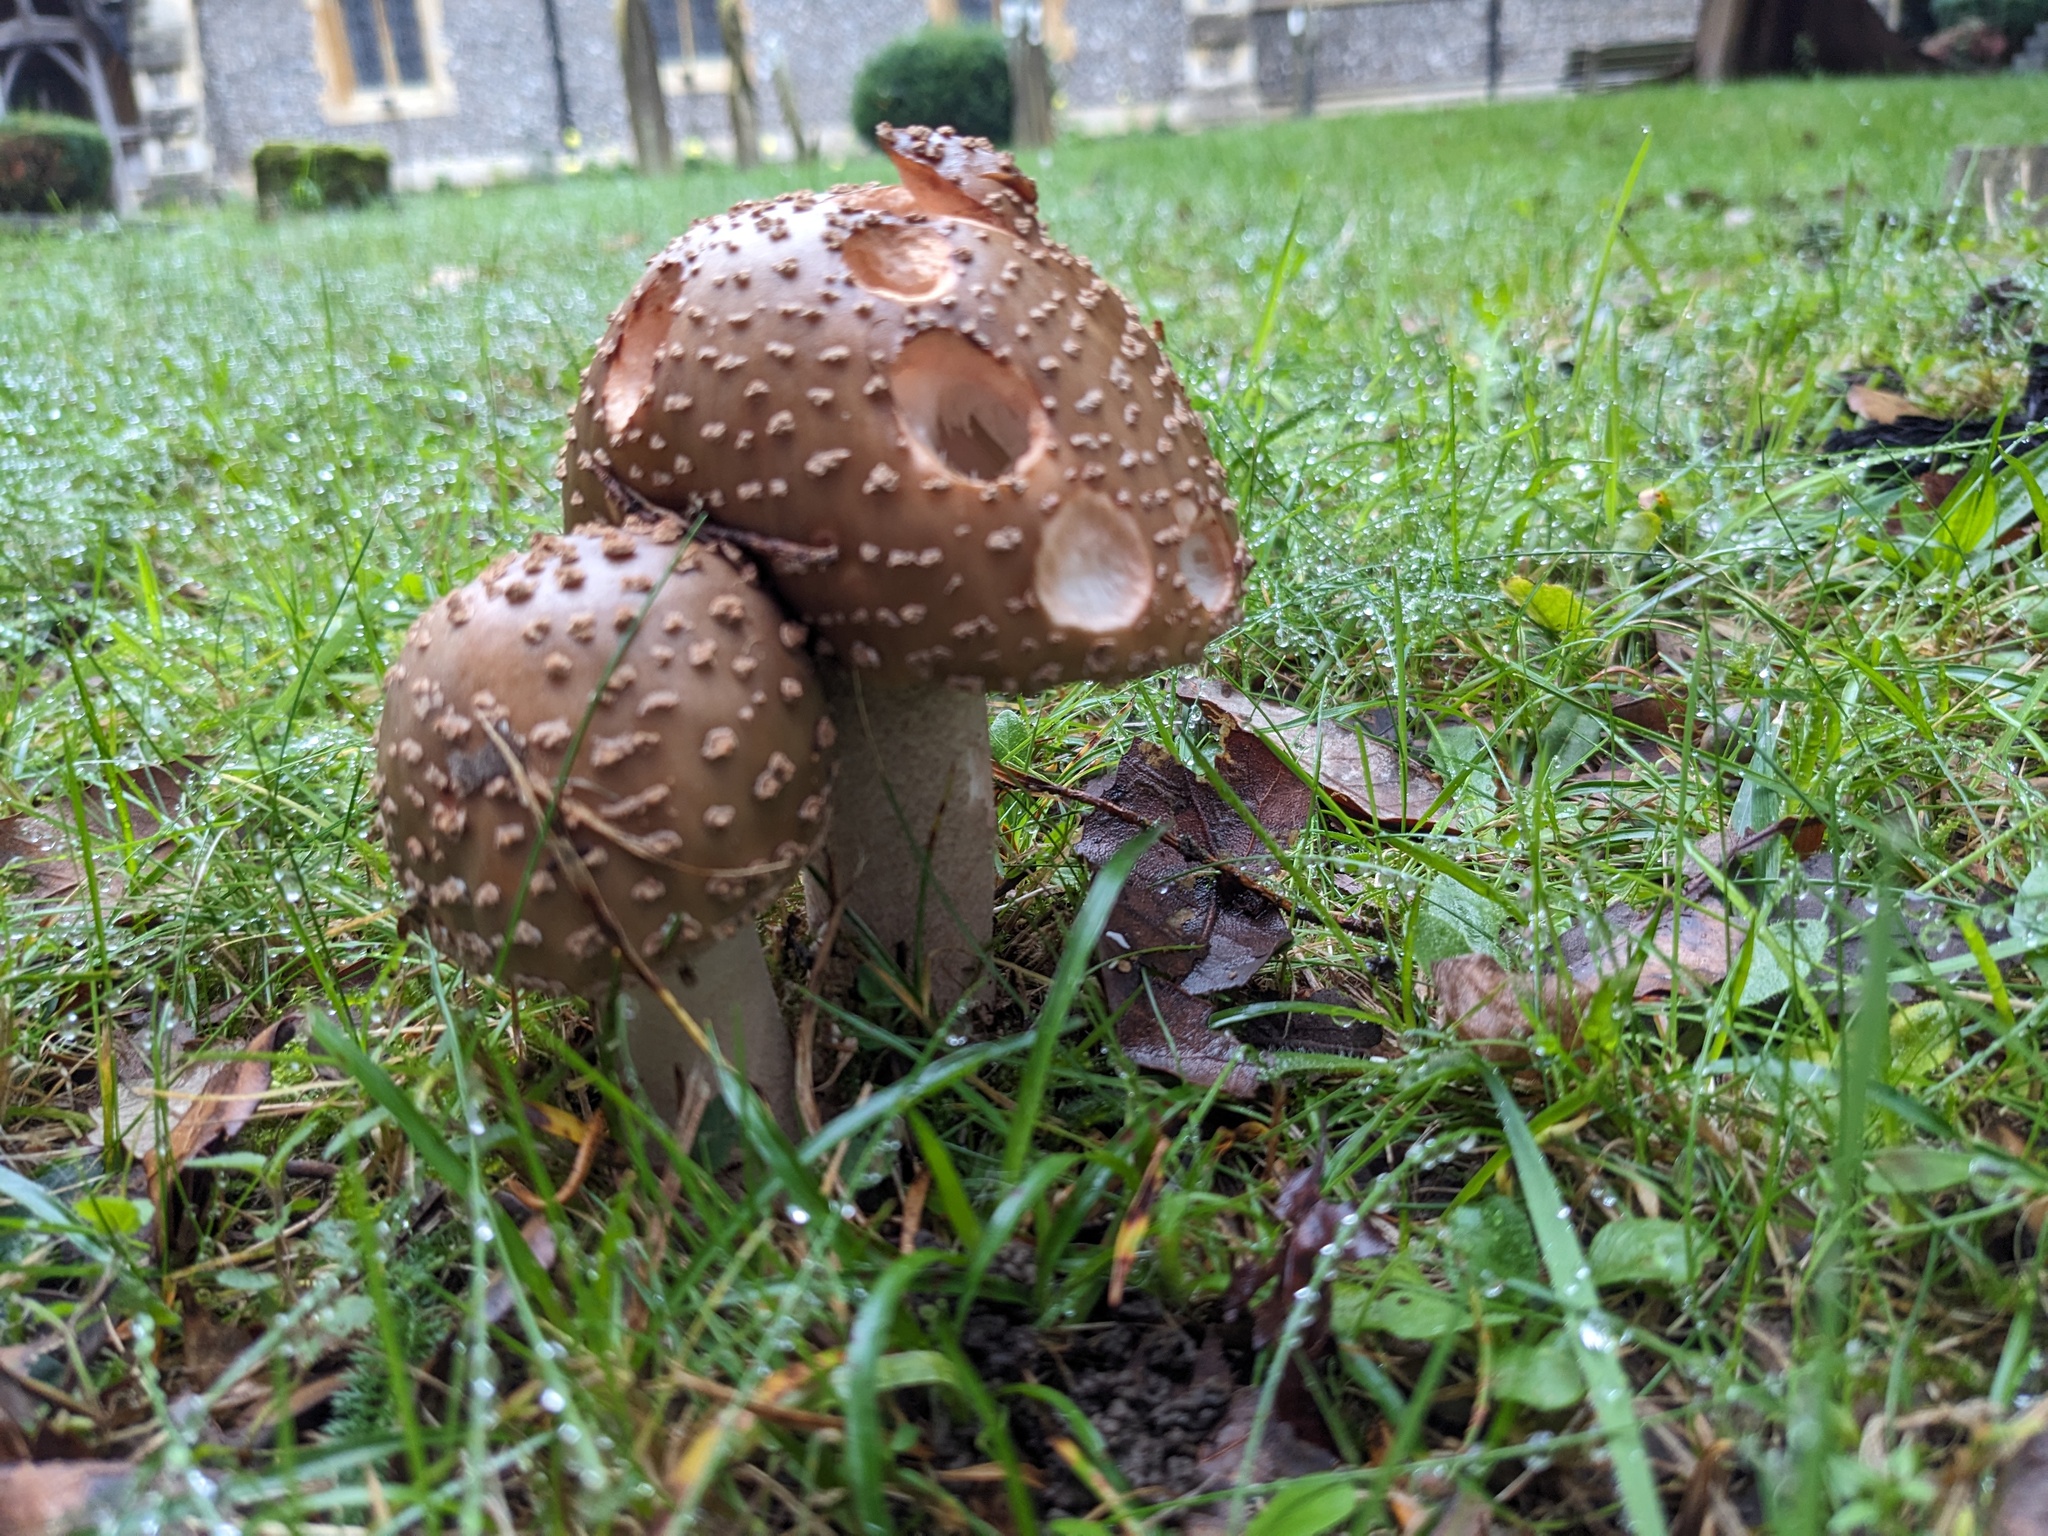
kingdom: Fungi
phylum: Basidiomycota
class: Agaricomycetes
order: Agaricales
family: Amanitaceae
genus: Amanita
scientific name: Amanita rubescens
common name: Blusher
